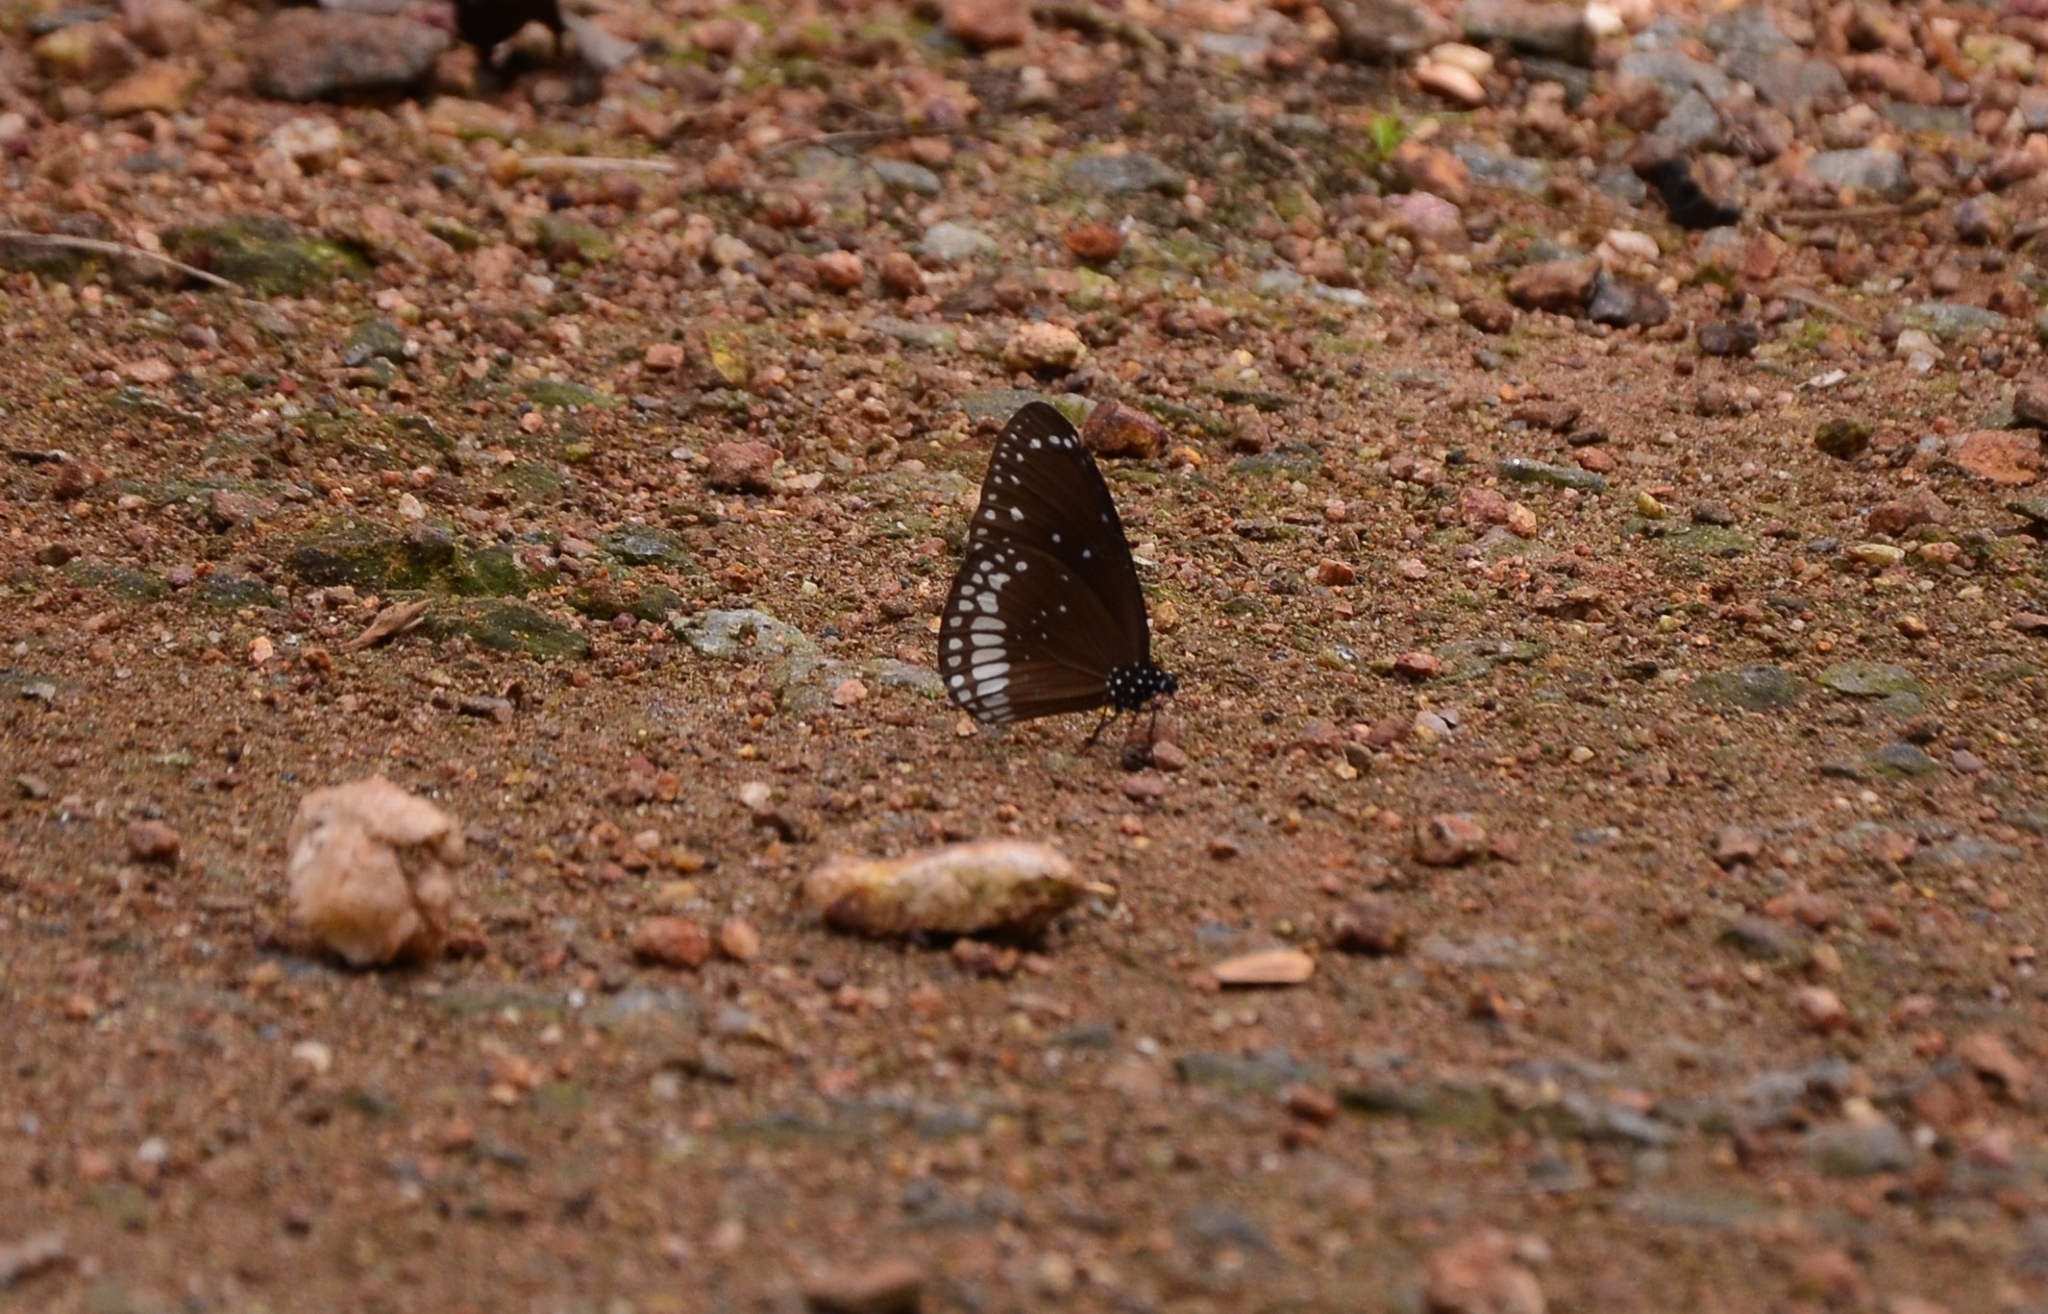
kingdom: Animalia
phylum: Arthropoda
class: Insecta
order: Lepidoptera
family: Nymphalidae
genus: Euploea
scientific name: Euploea core
